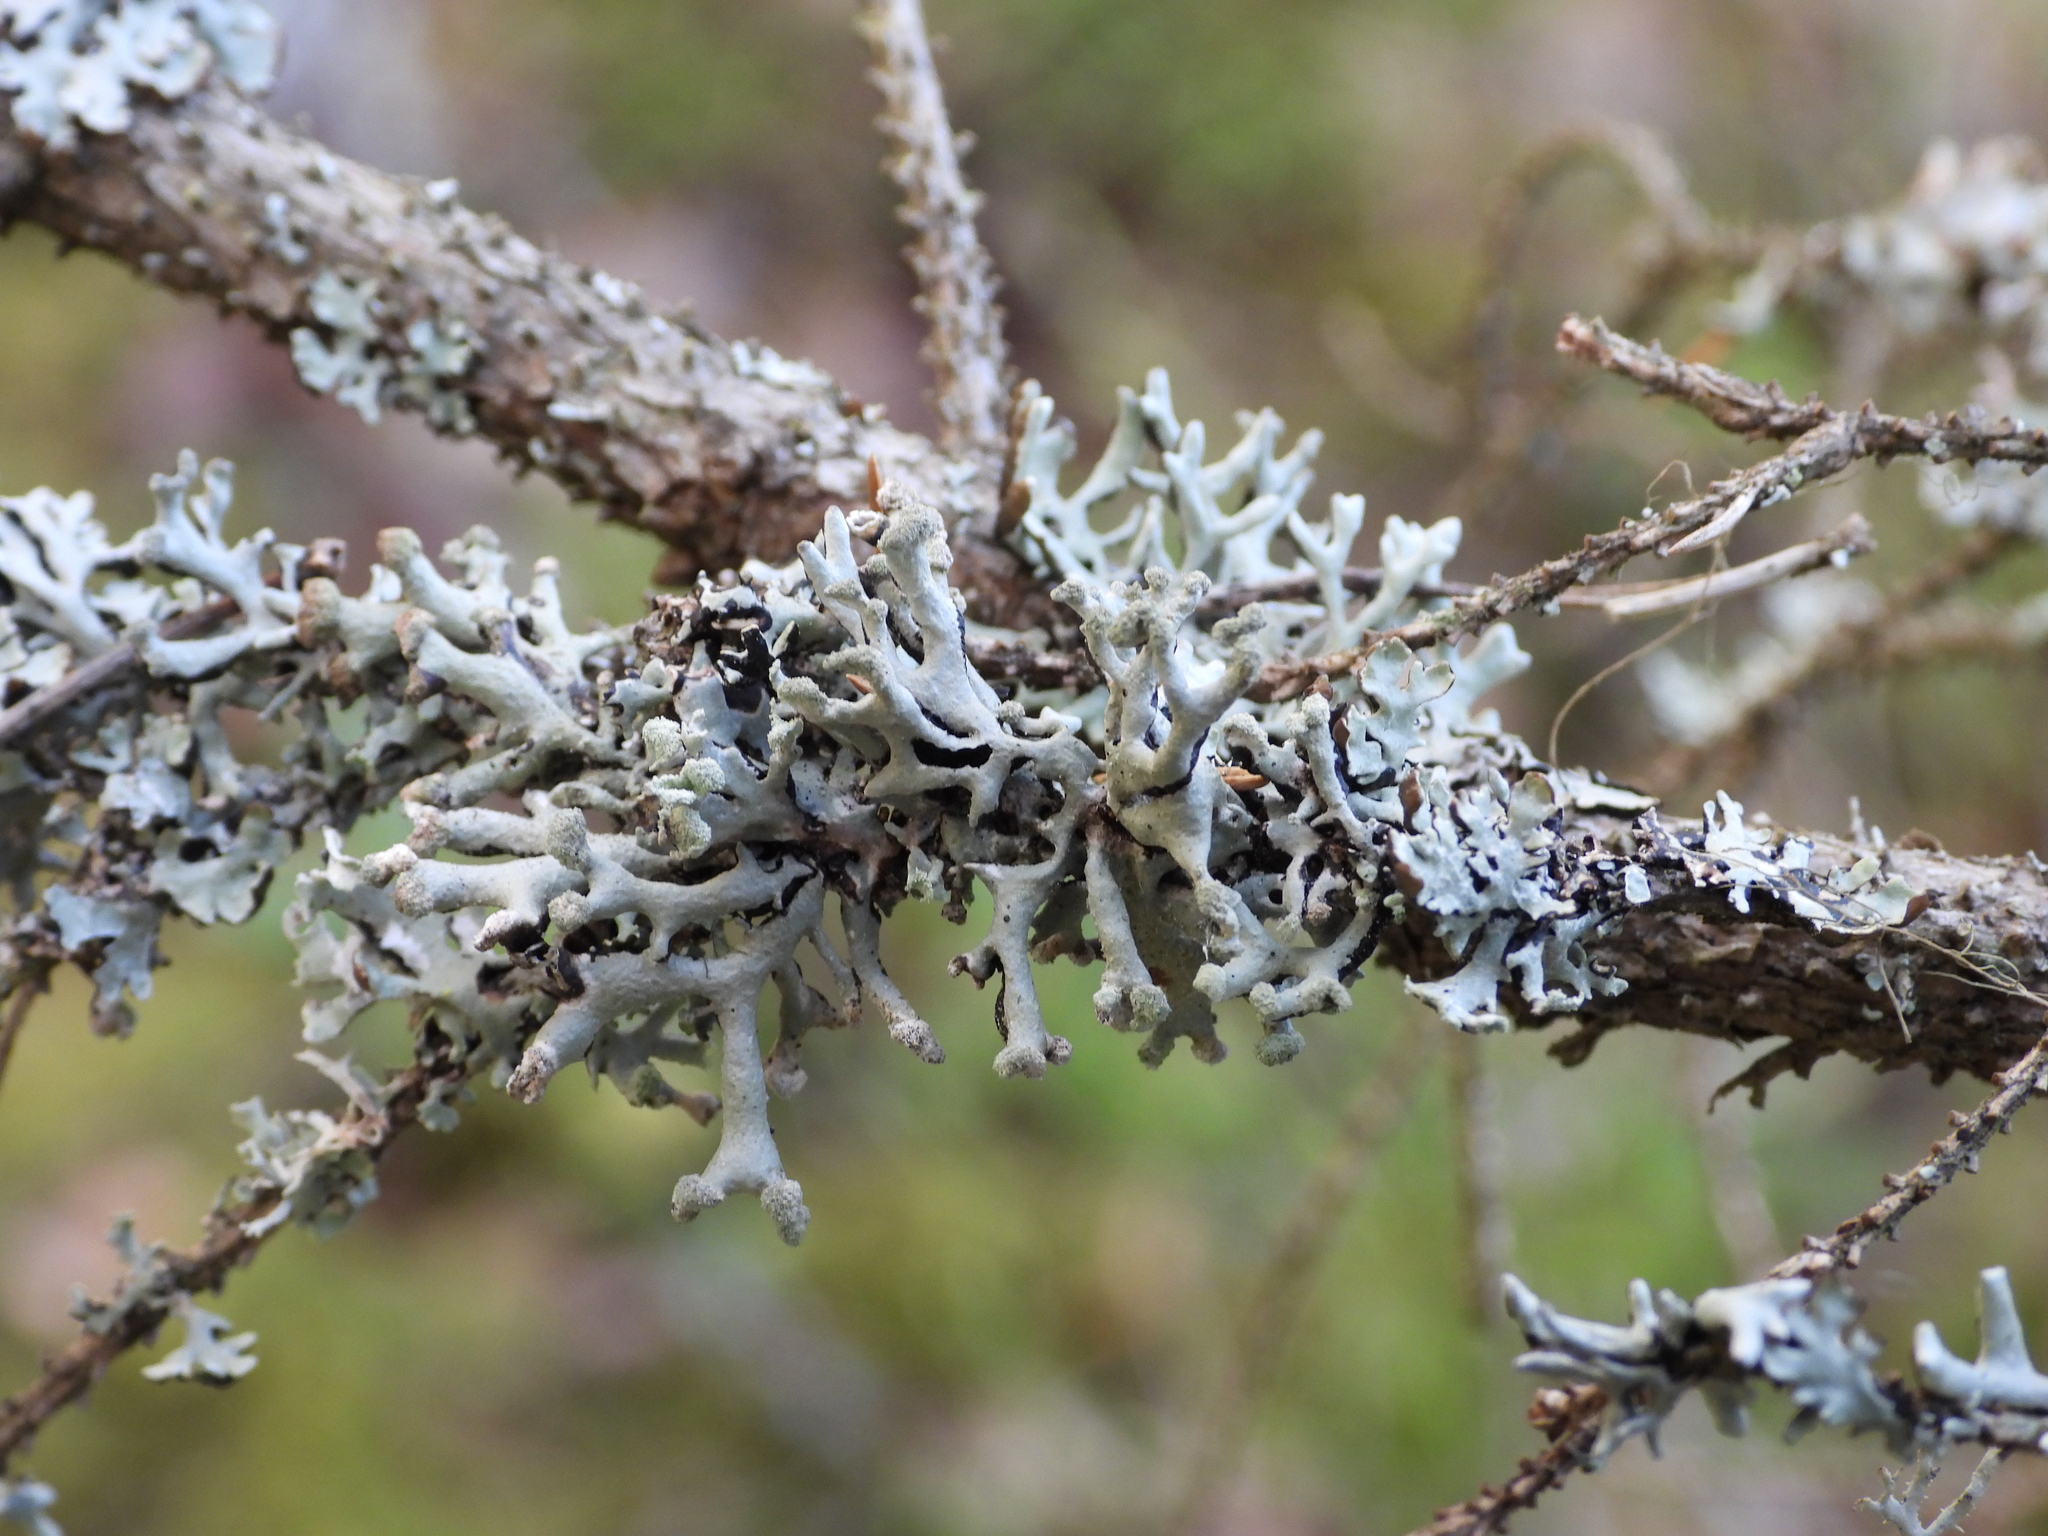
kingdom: Fungi
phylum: Ascomycota
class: Lecanoromycetes
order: Lecanorales
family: Parmeliaceae
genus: Hypogymnia
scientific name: Hypogymnia tubulosa
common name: Powder-headed tube lichen
